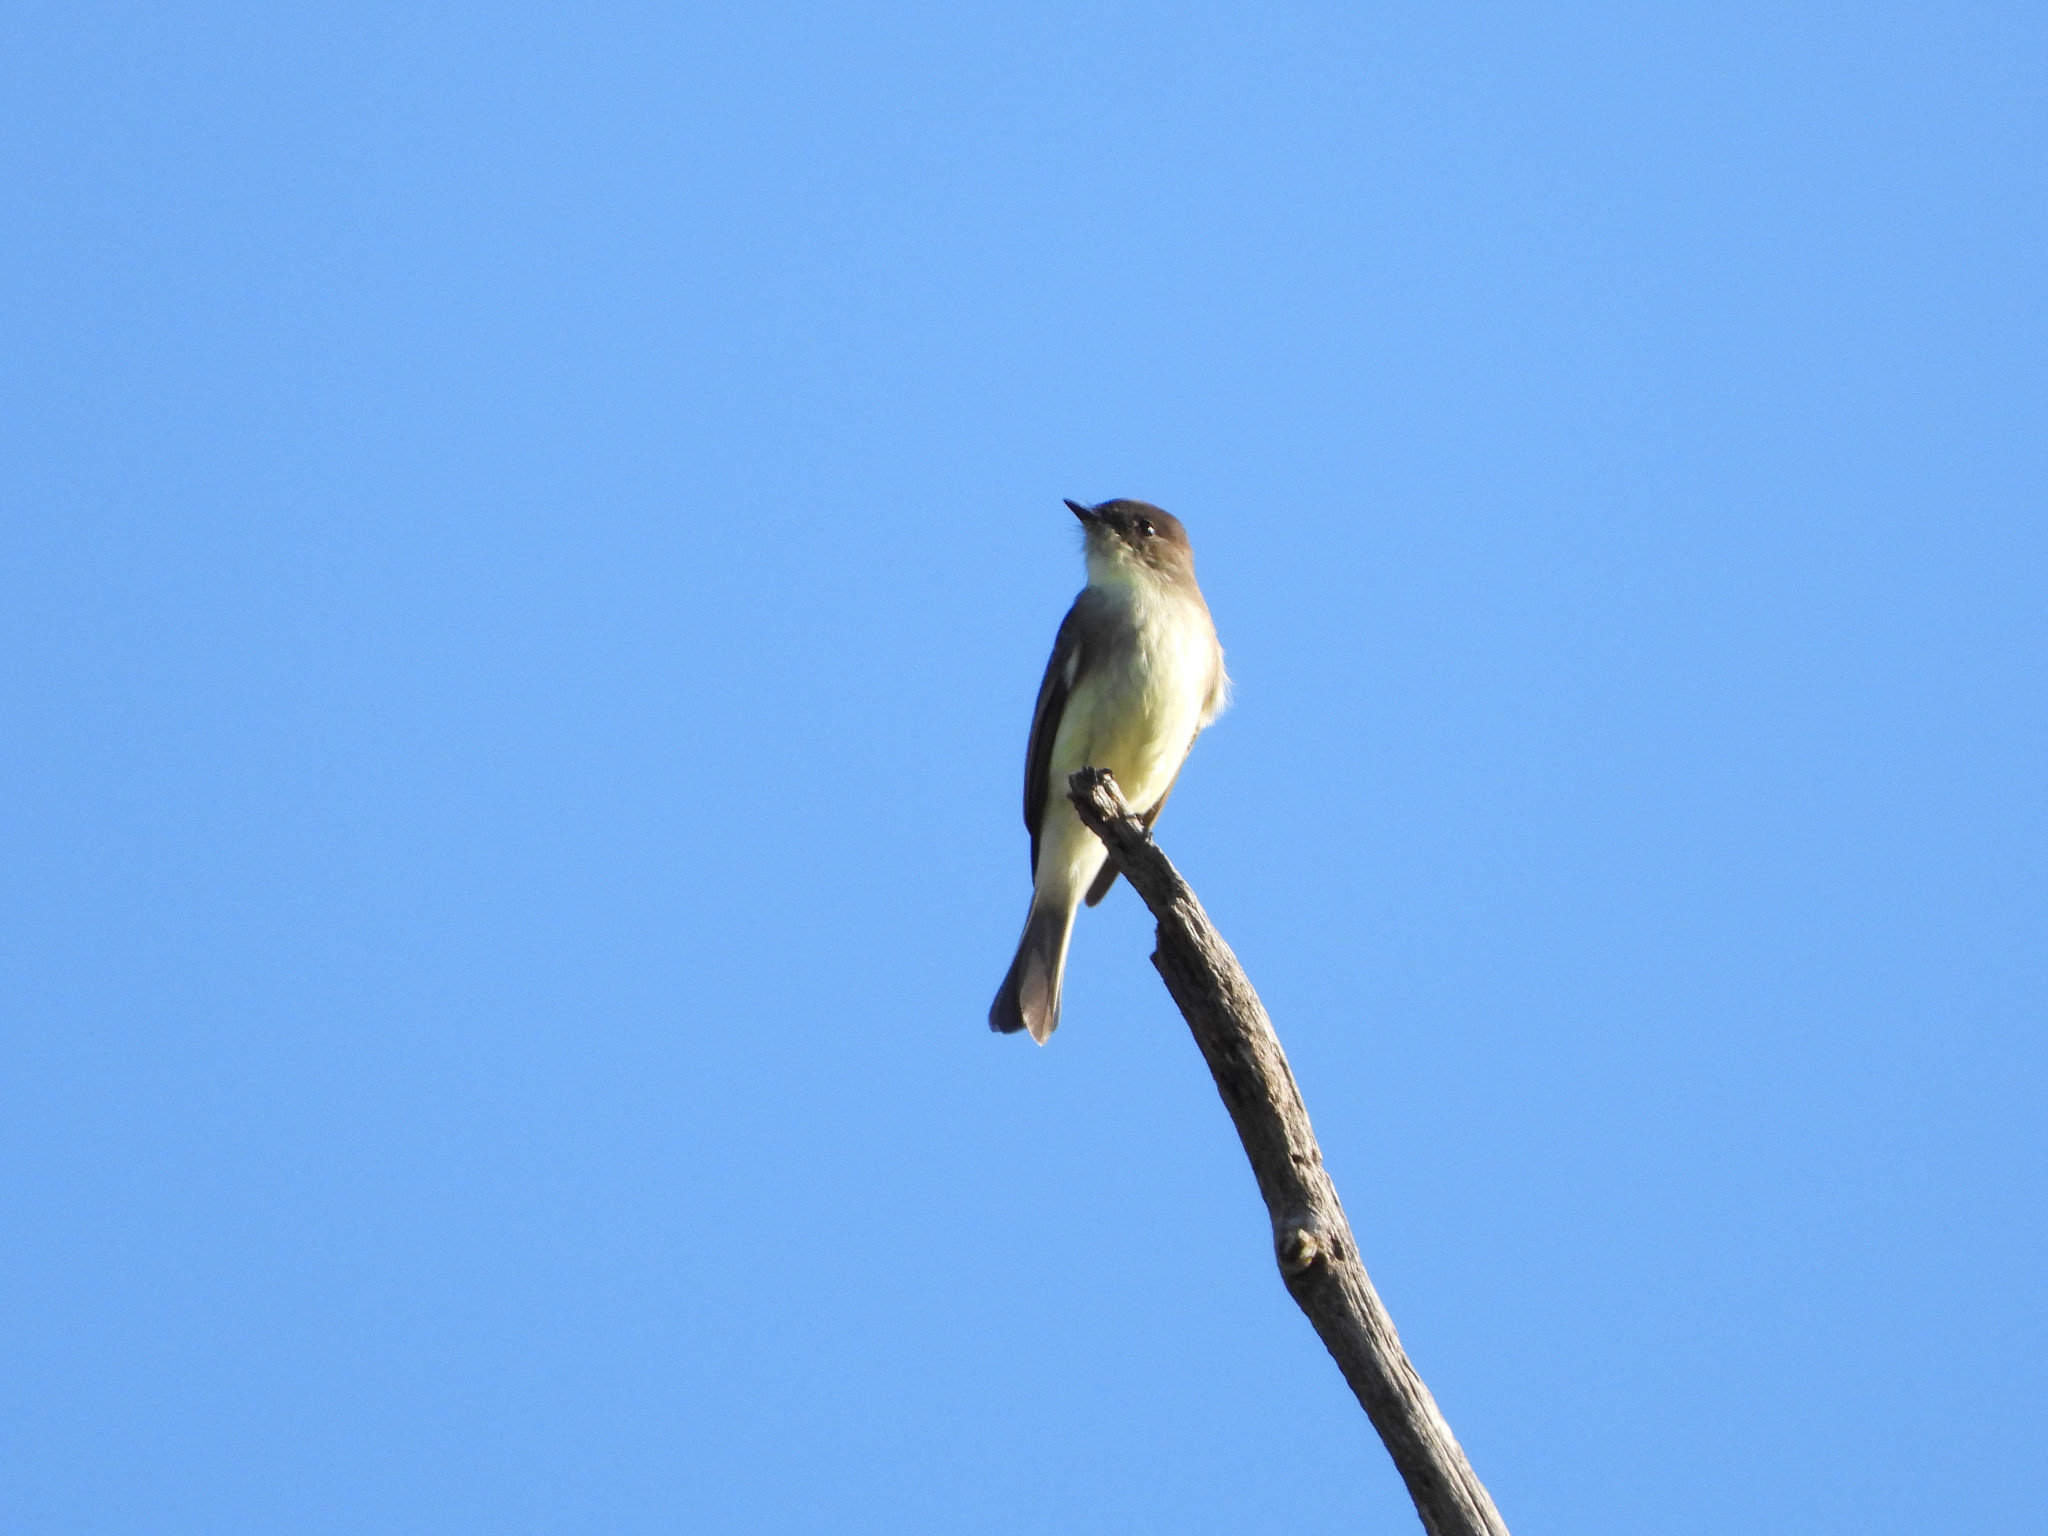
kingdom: Animalia
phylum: Chordata
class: Aves
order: Passeriformes
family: Tyrannidae
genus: Sayornis
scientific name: Sayornis phoebe
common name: Eastern phoebe
